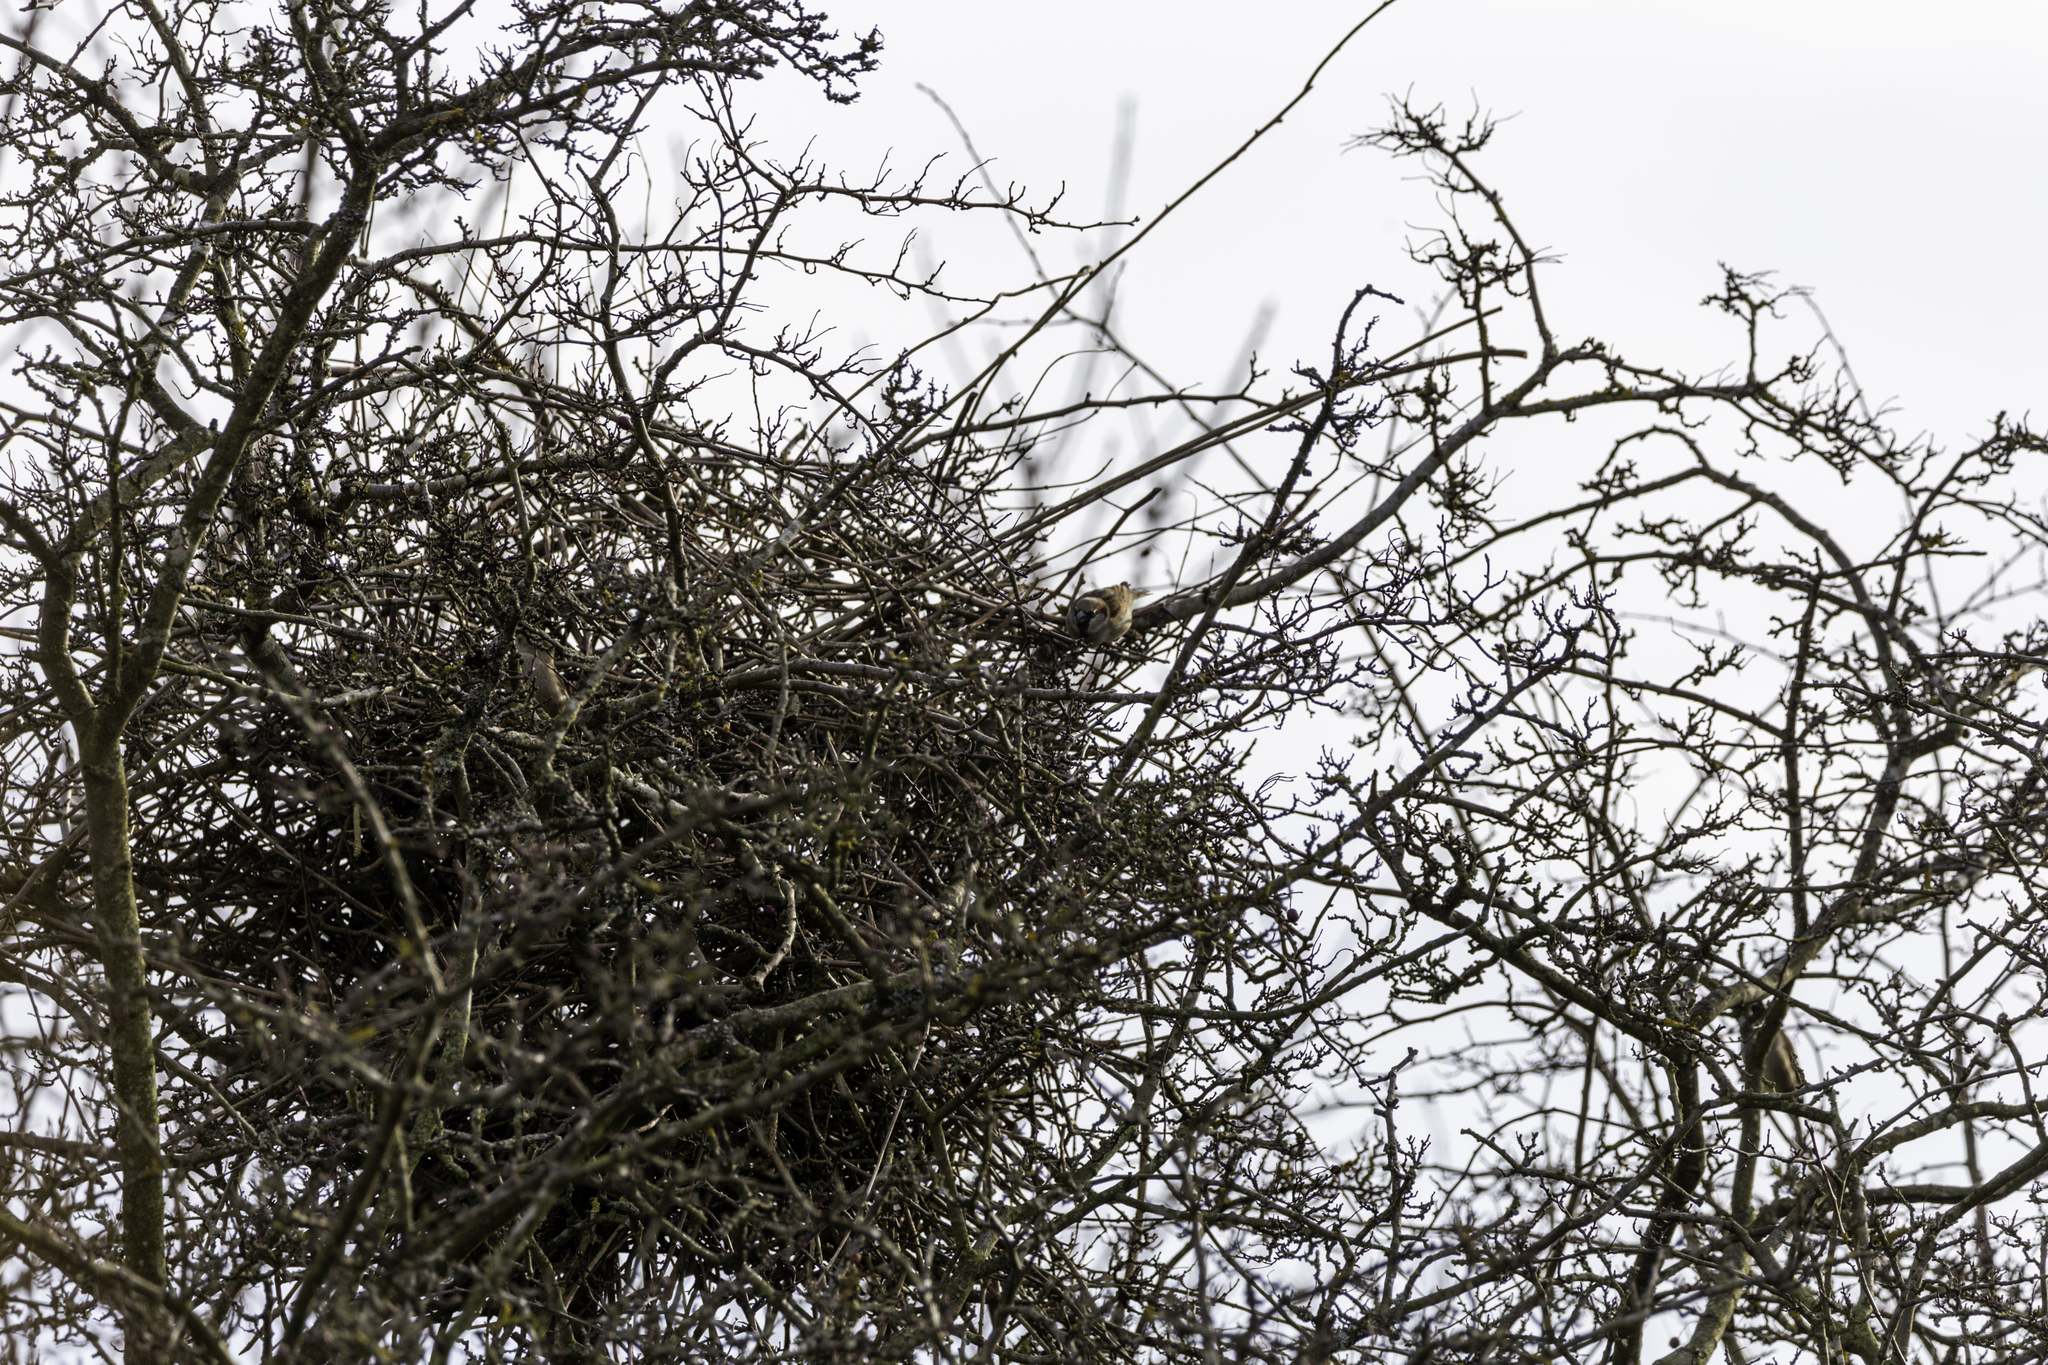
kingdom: Animalia
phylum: Chordata
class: Aves
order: Passeriformes
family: Passeridae
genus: Passer
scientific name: Passer domesticus
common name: House sparrow
